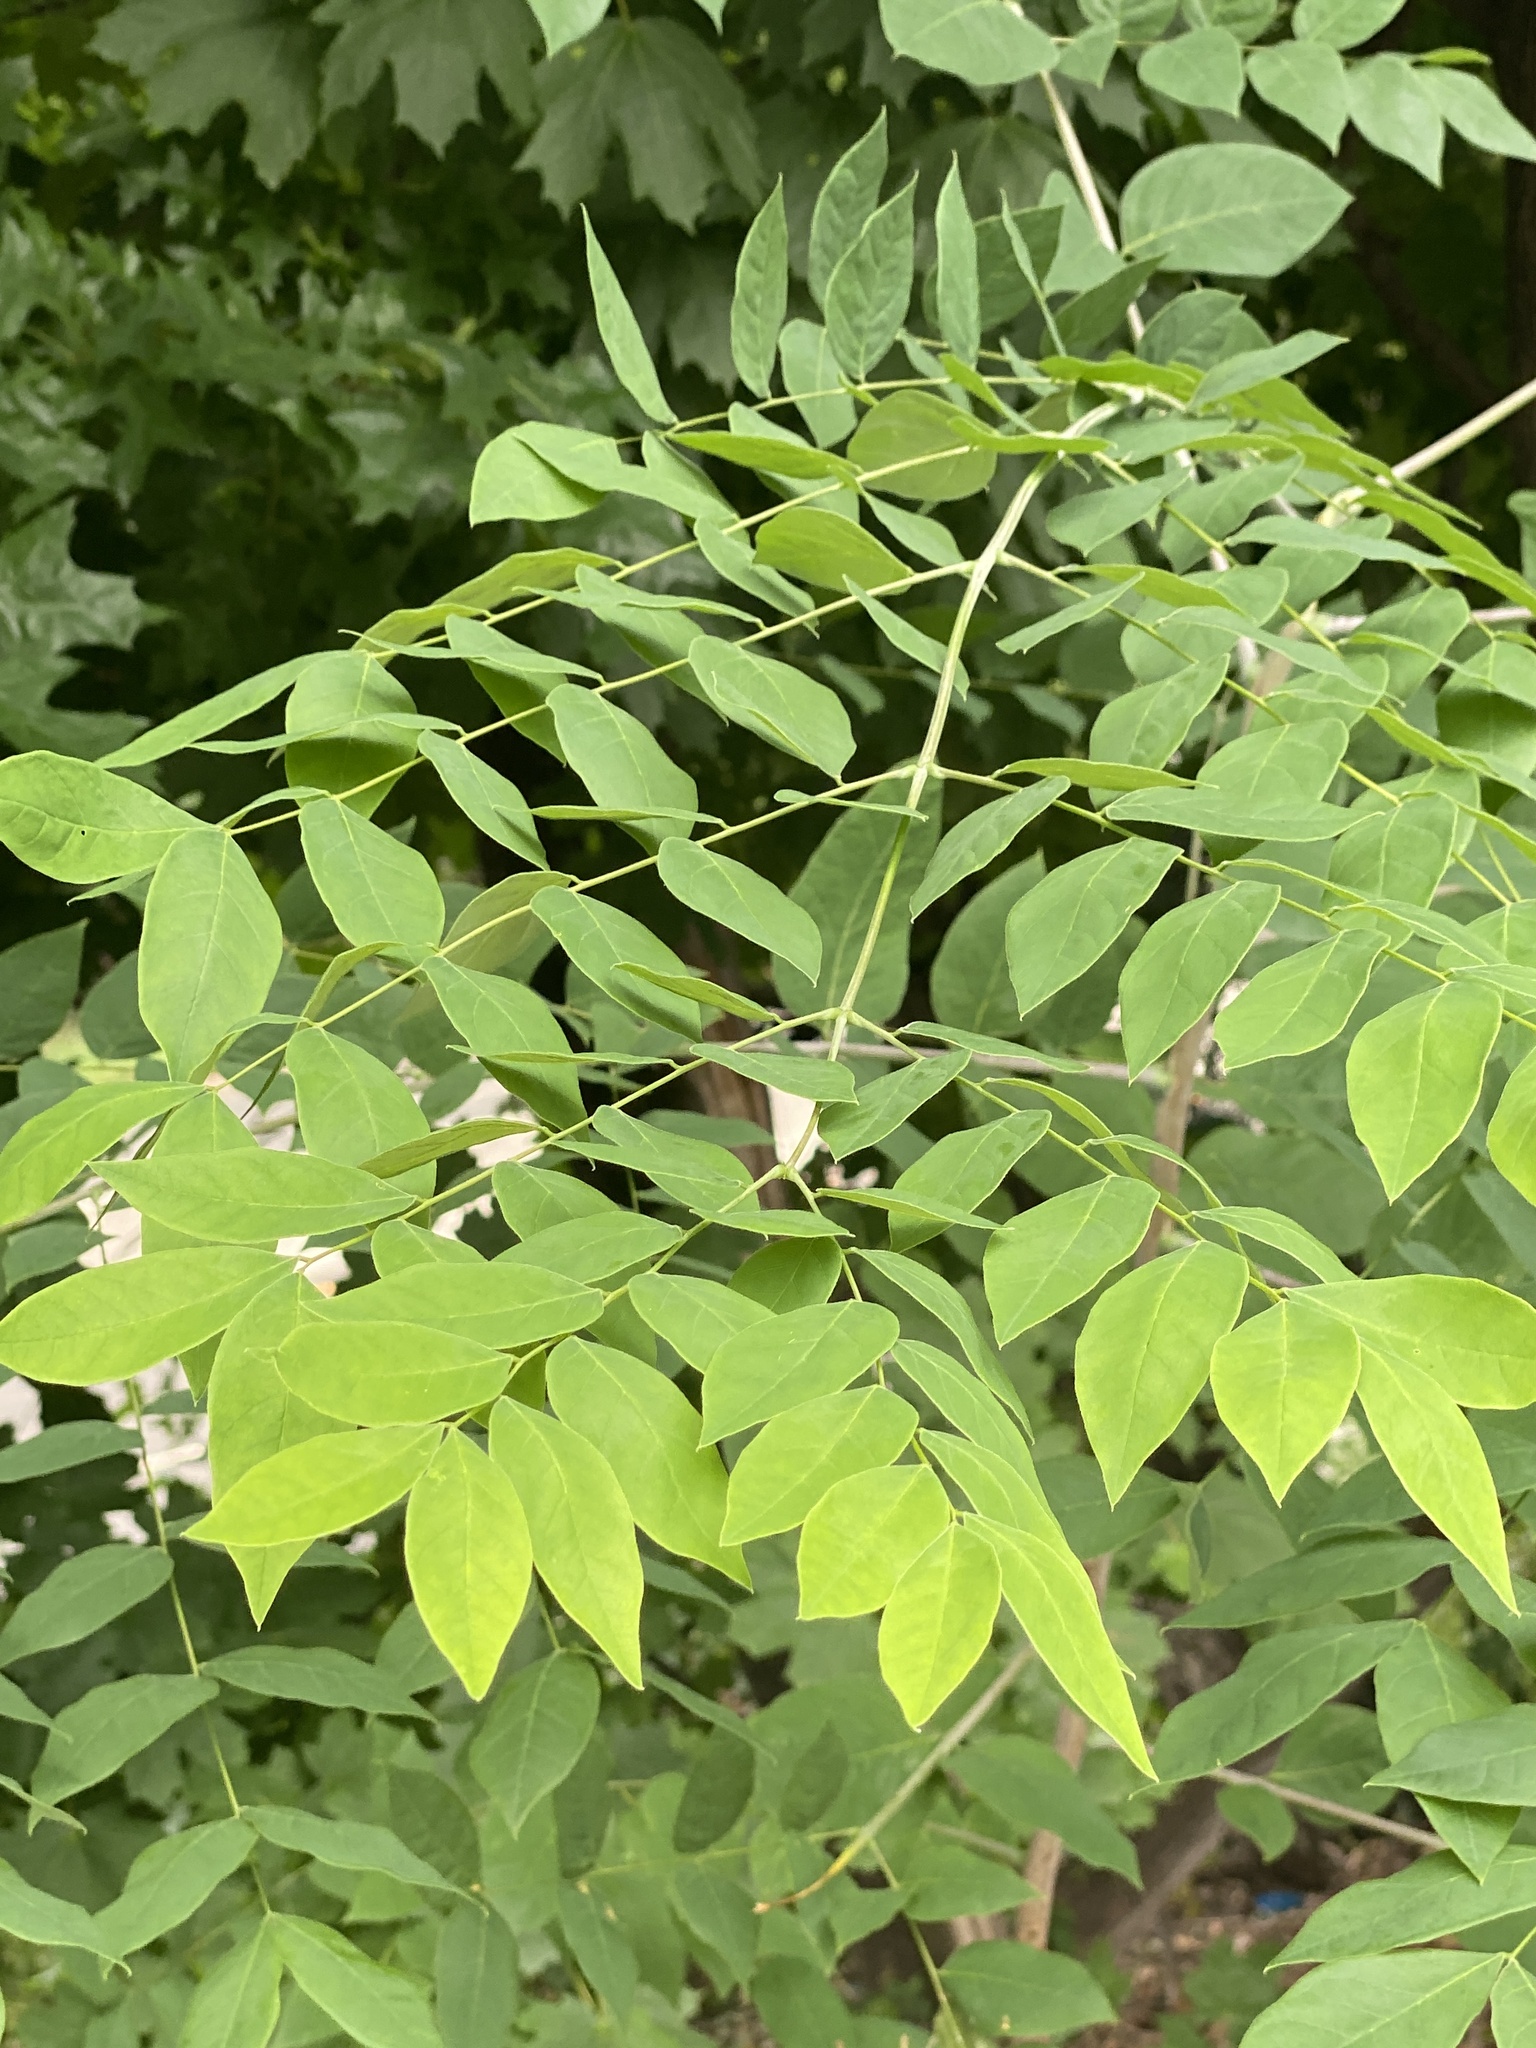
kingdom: Plantae
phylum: Tracheophyta
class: Magnoliopsida
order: Fabales
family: Fabaceae
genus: Gymnocladus
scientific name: Gymnocladus dioicus
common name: Kentucky coffee-tree
